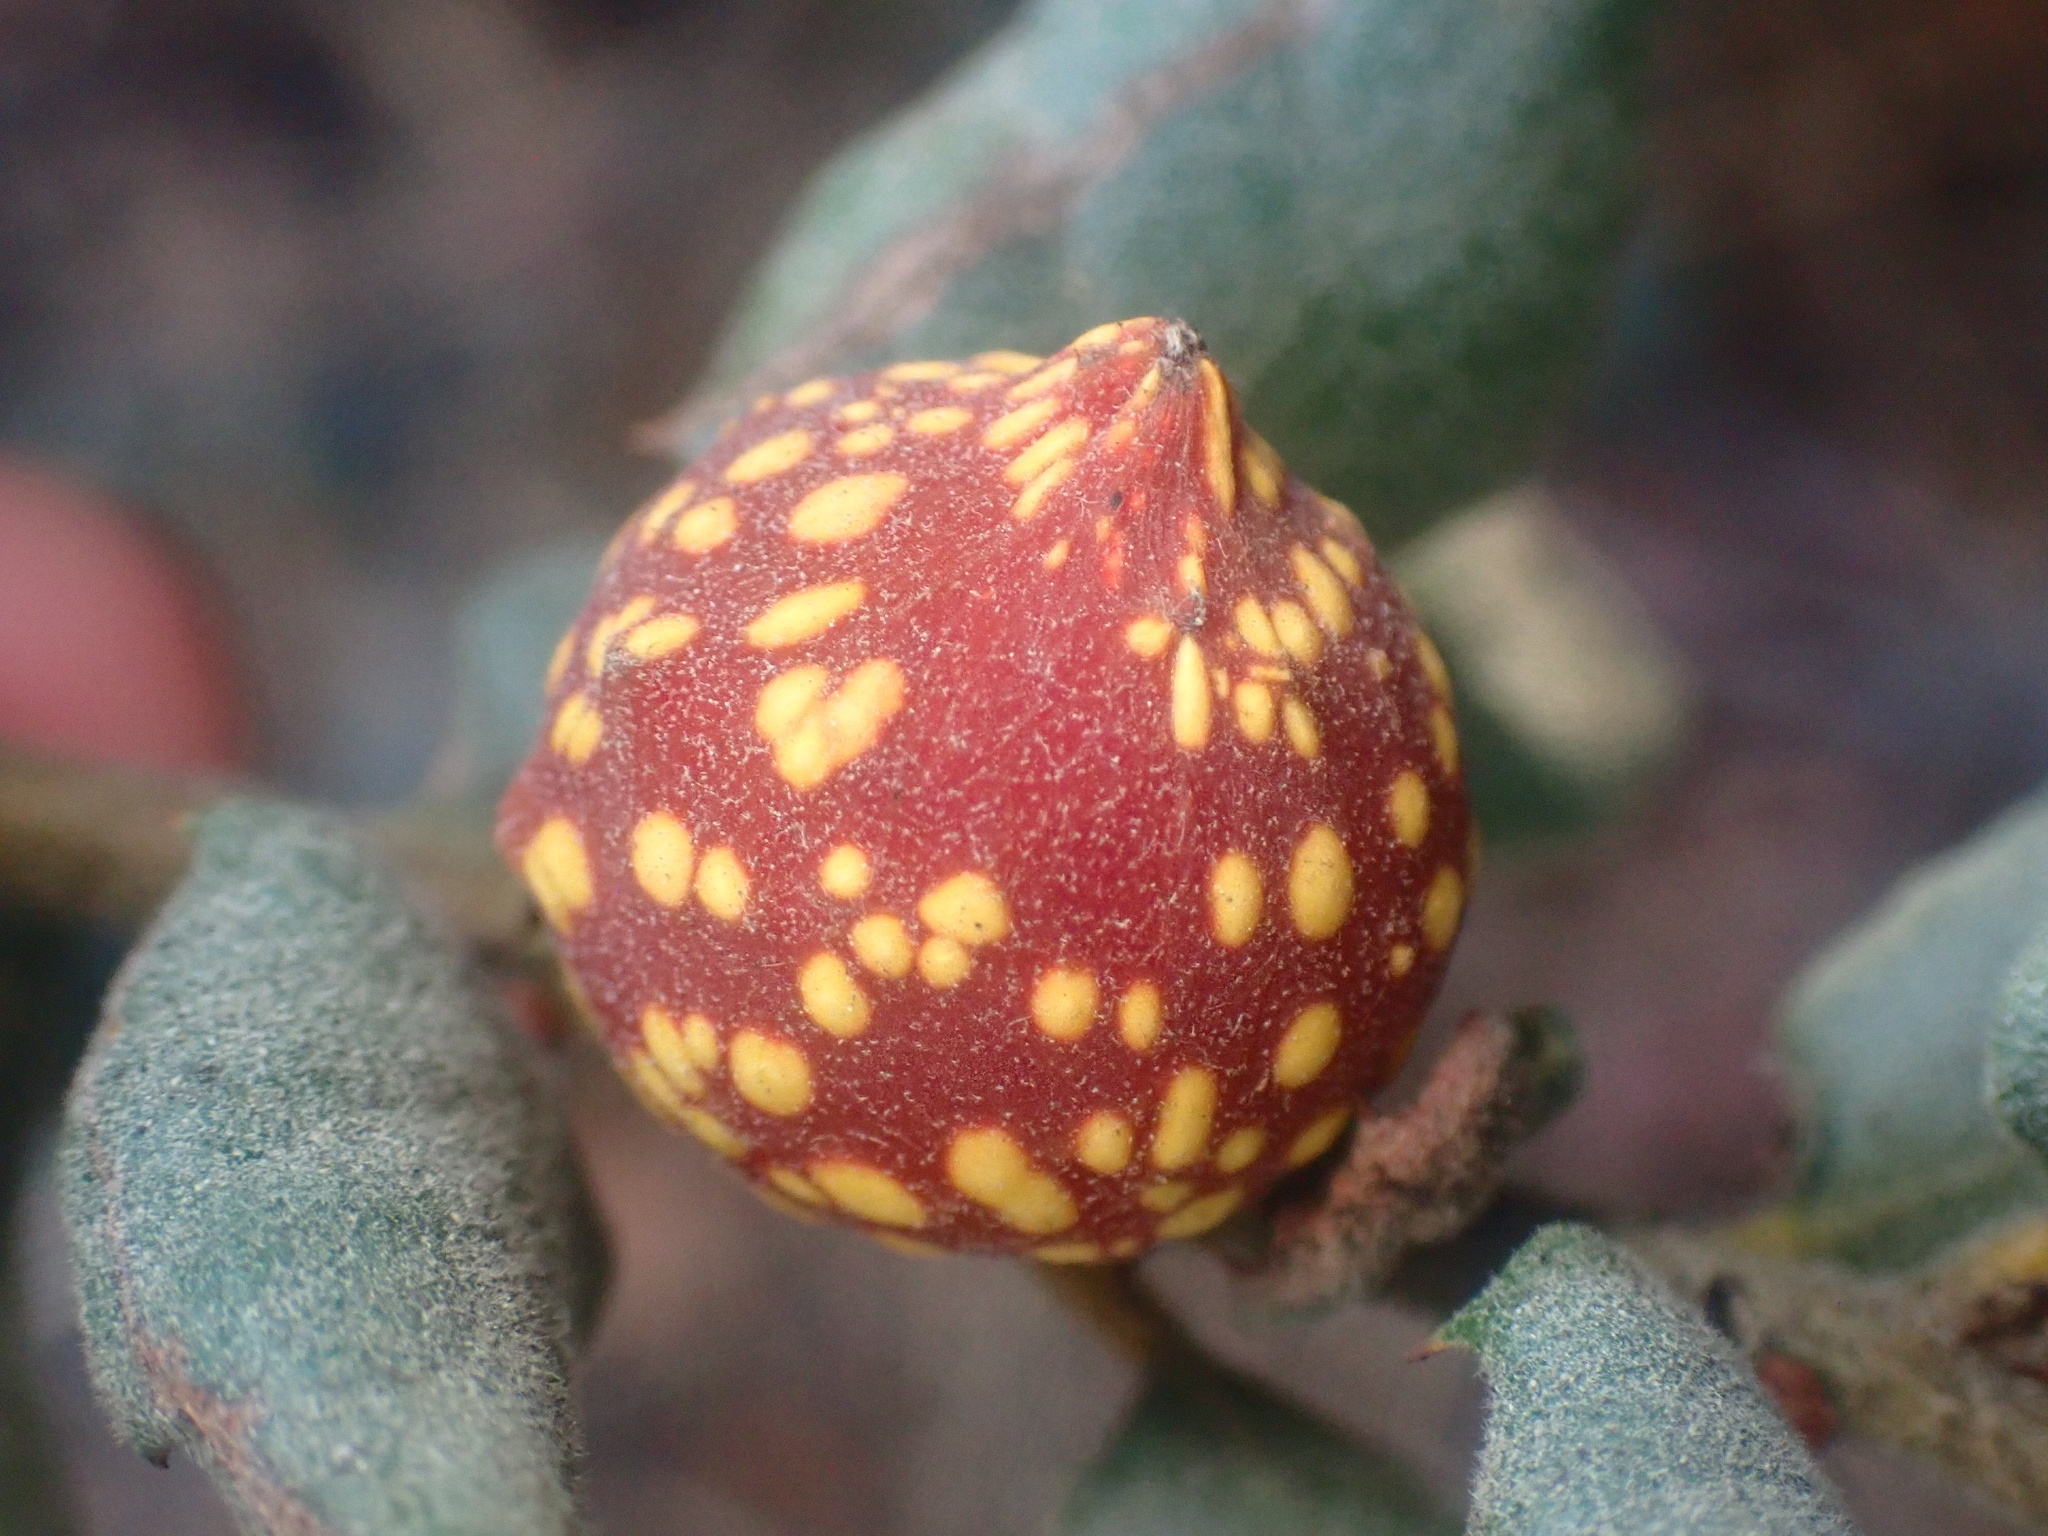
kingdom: Animalia
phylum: Arthropoda
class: Insecta
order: Hymenoptera
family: Cynipidae
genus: Burnettweldia
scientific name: Burnettweldia
